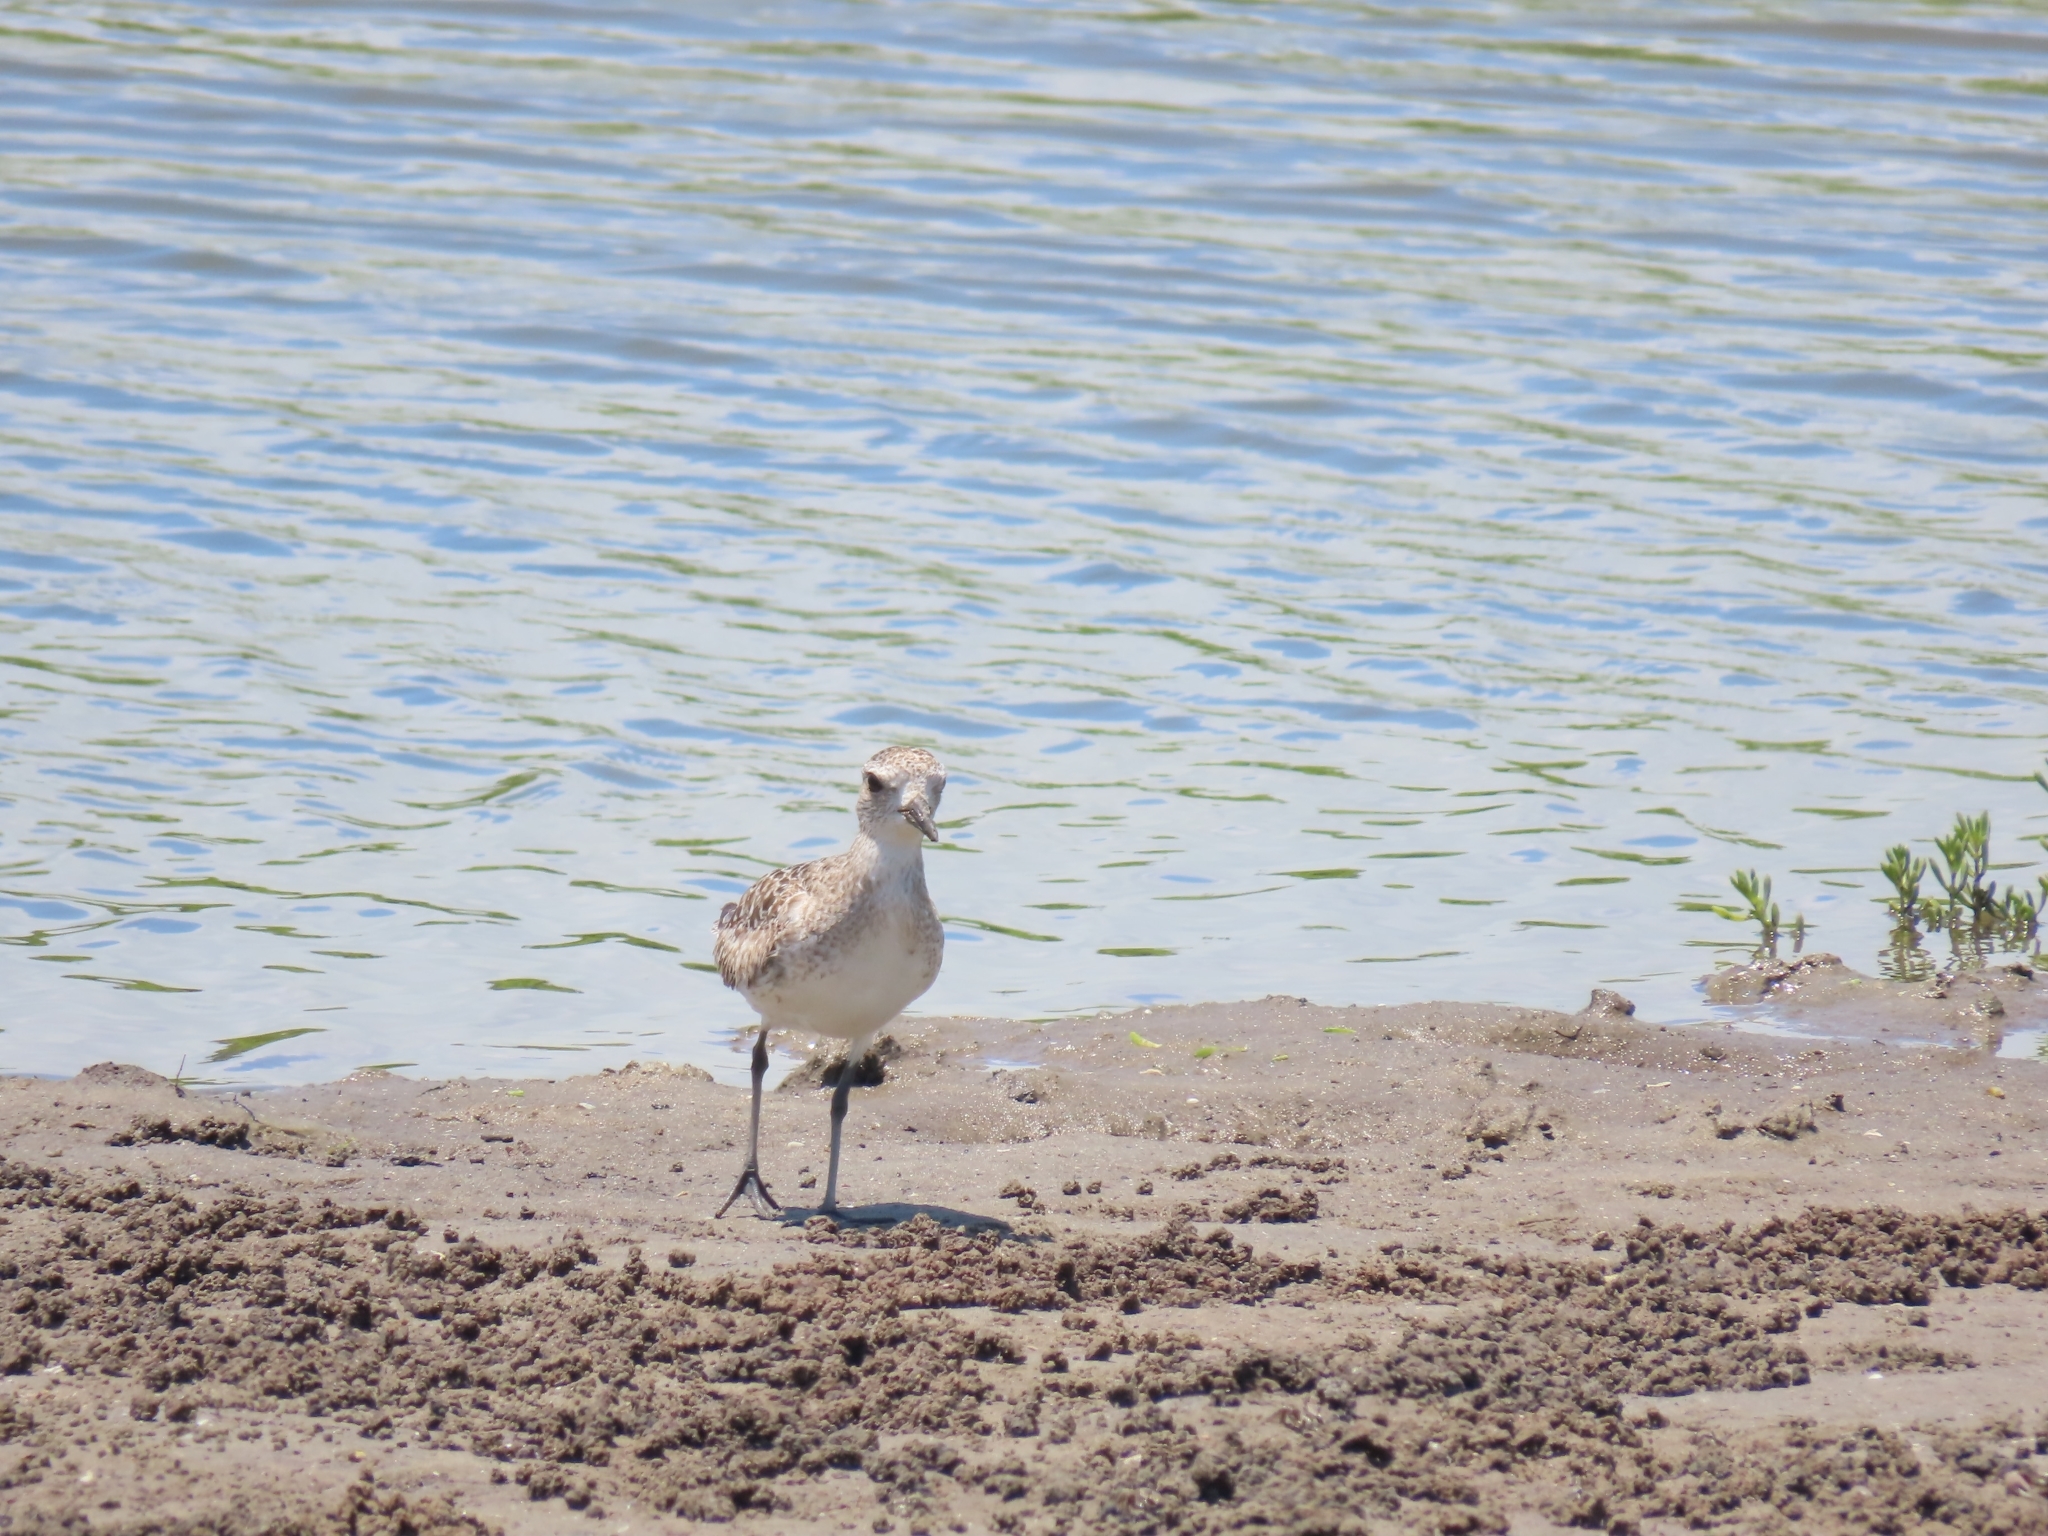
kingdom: Animalia
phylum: Chordata
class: Aves
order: Charadriiformes
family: Scolopacidae
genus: Tringa
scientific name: Tringa semipalmata
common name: Willet
